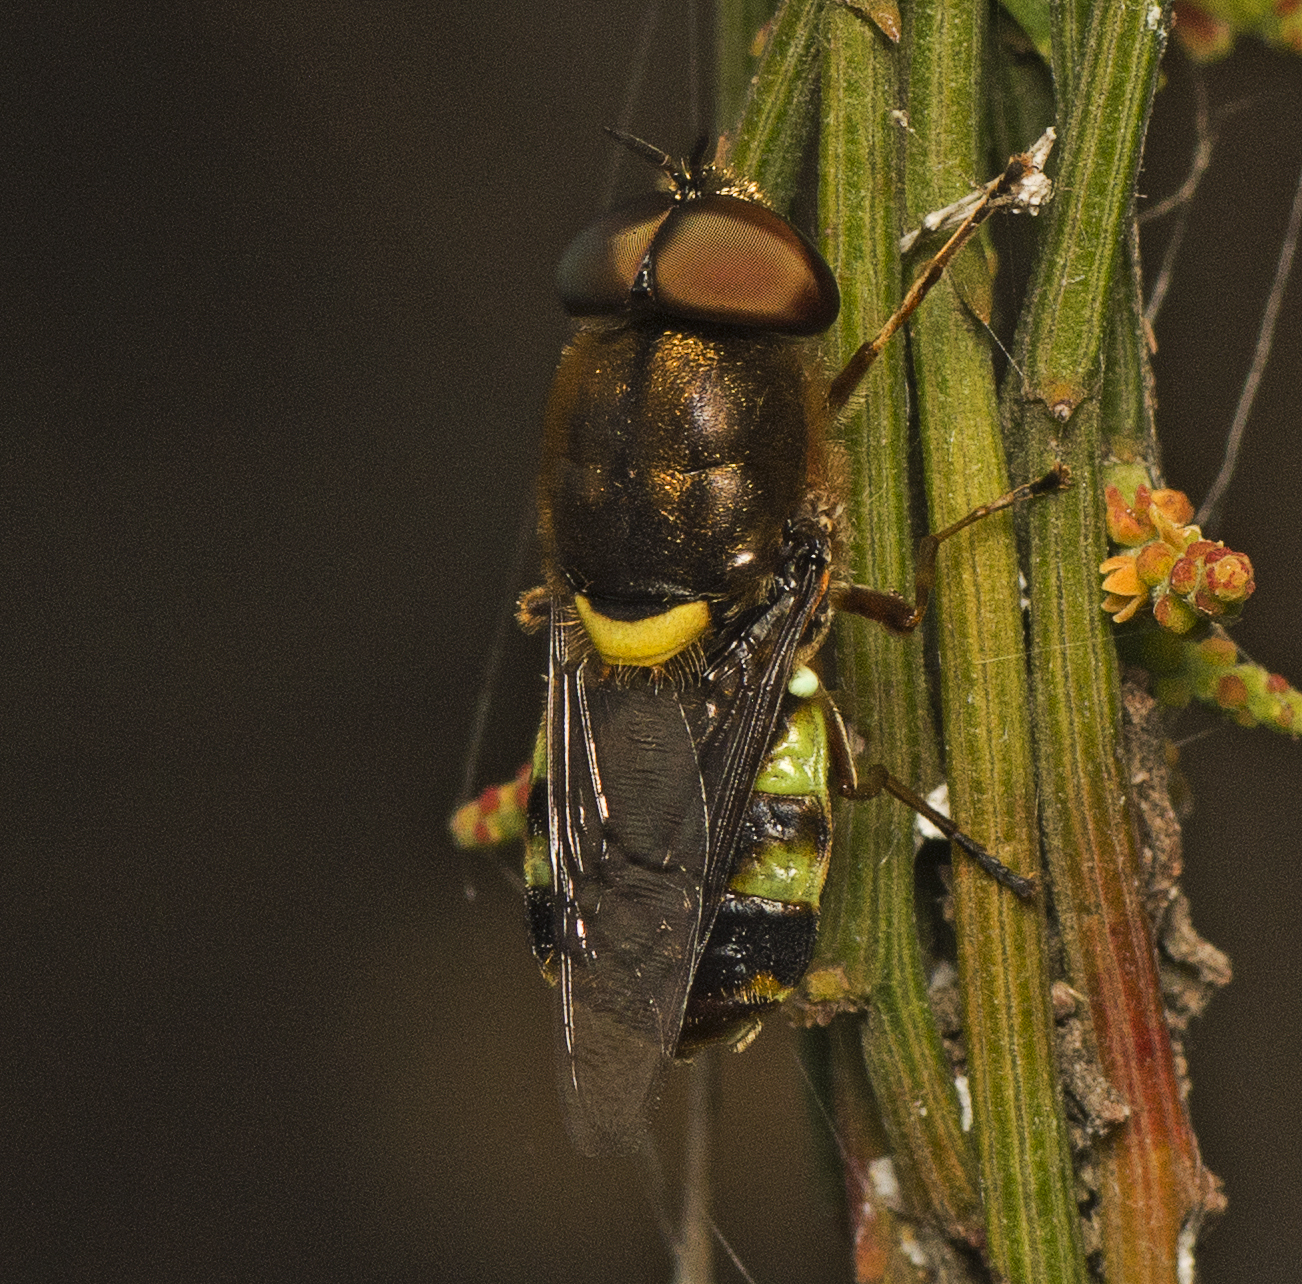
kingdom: Animalia
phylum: Arthropoda
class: Insecta
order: Diptera
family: Stratiomyidae
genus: Odontomyia
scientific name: Odontomyia hunteri
